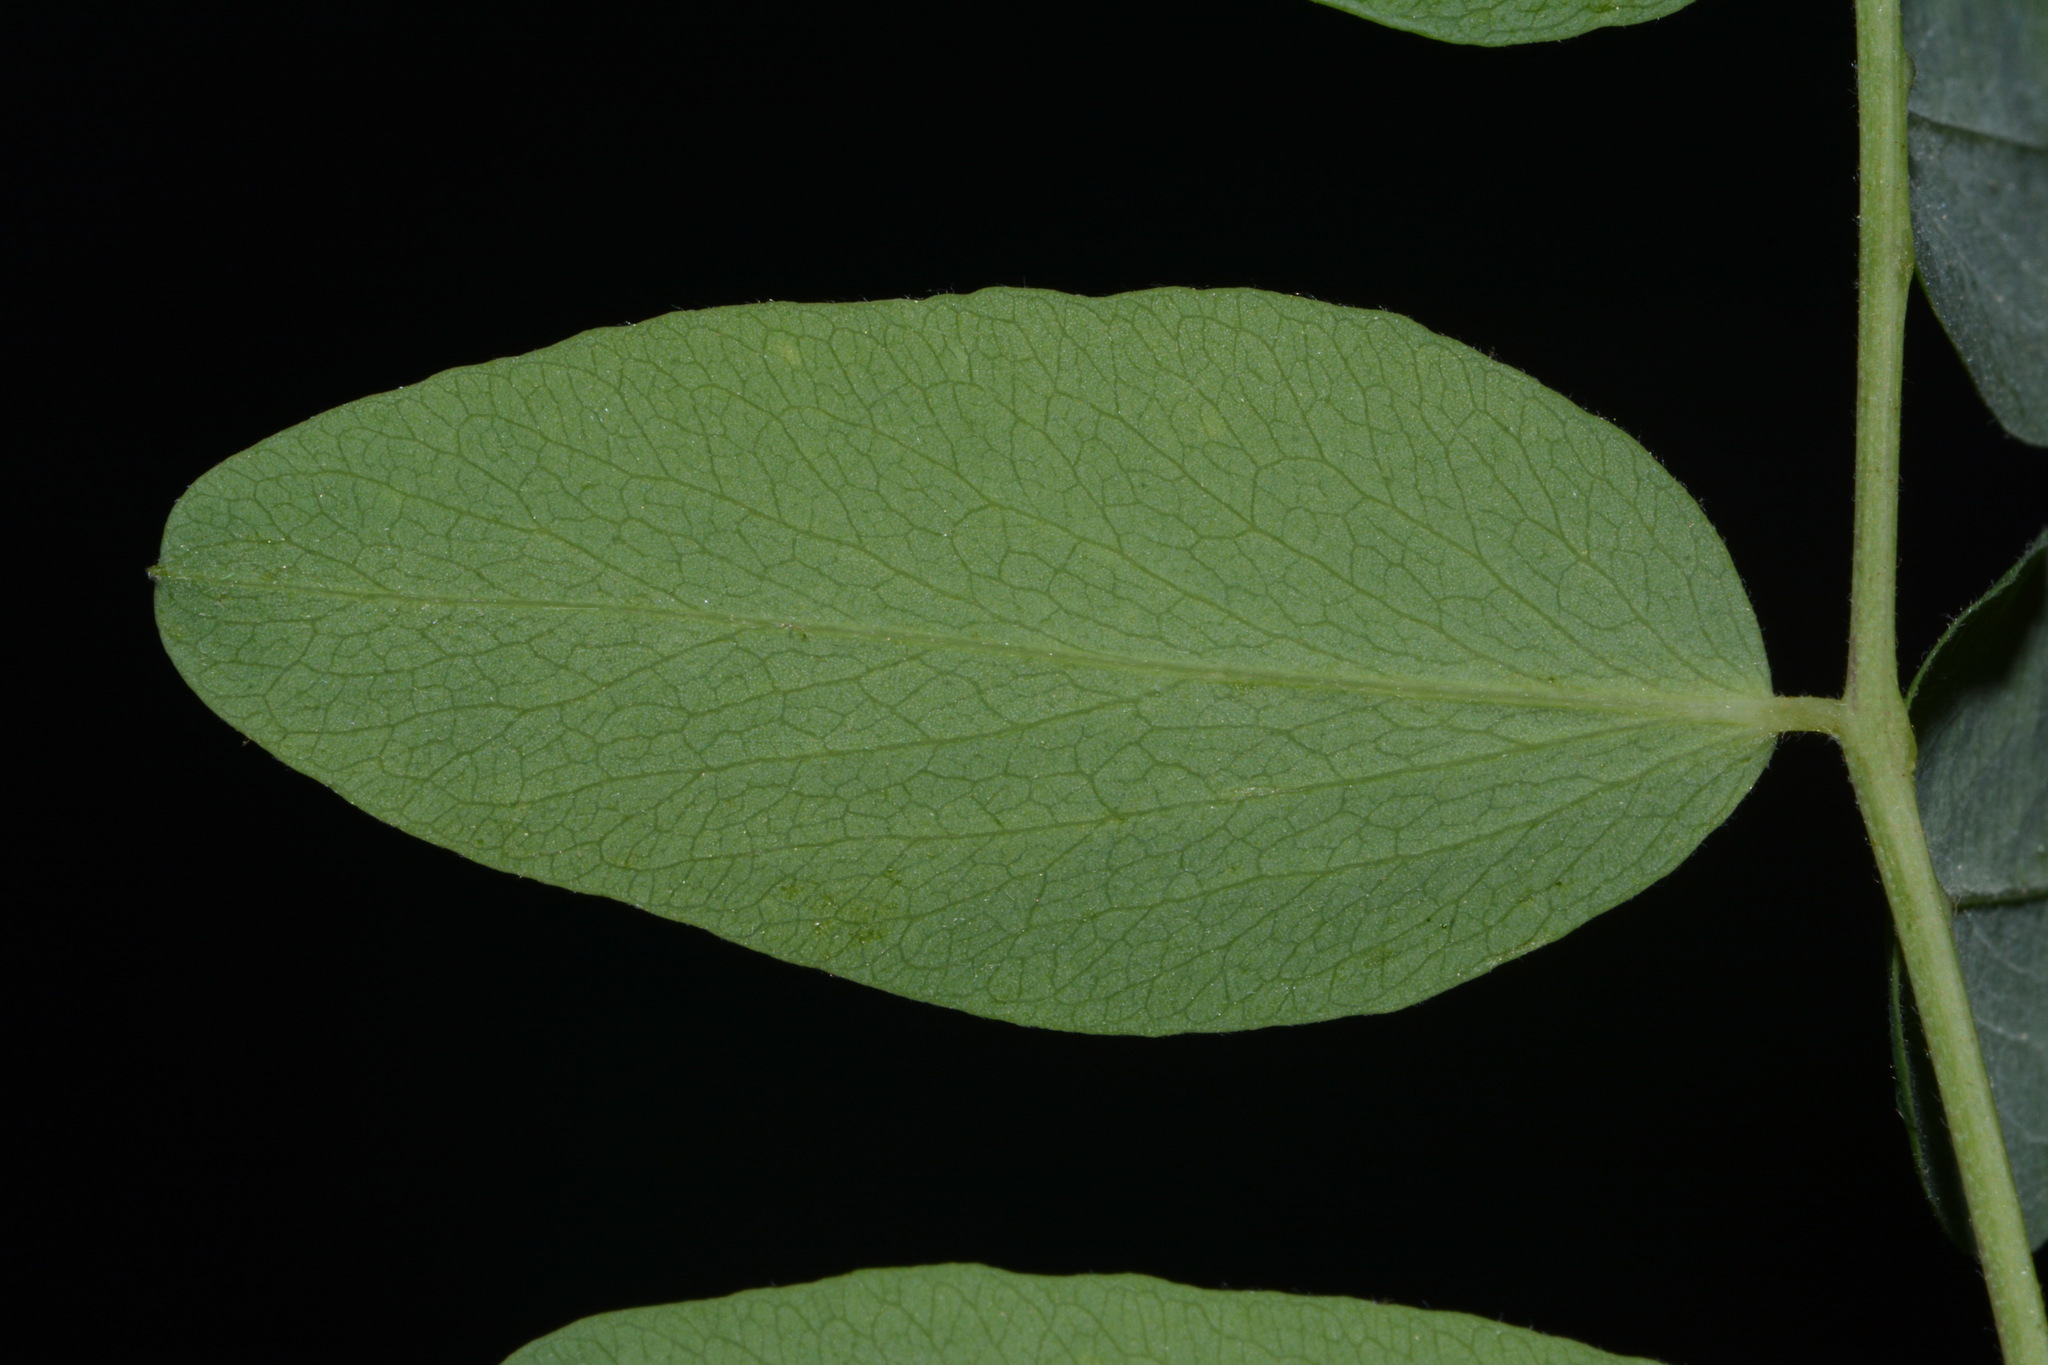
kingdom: Plantae
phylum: Tracheophyta
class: Magnoliopsida
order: Fabales
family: Fabaceae
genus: Lathyrus
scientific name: Lathyrus venosus
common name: Forest-pea
